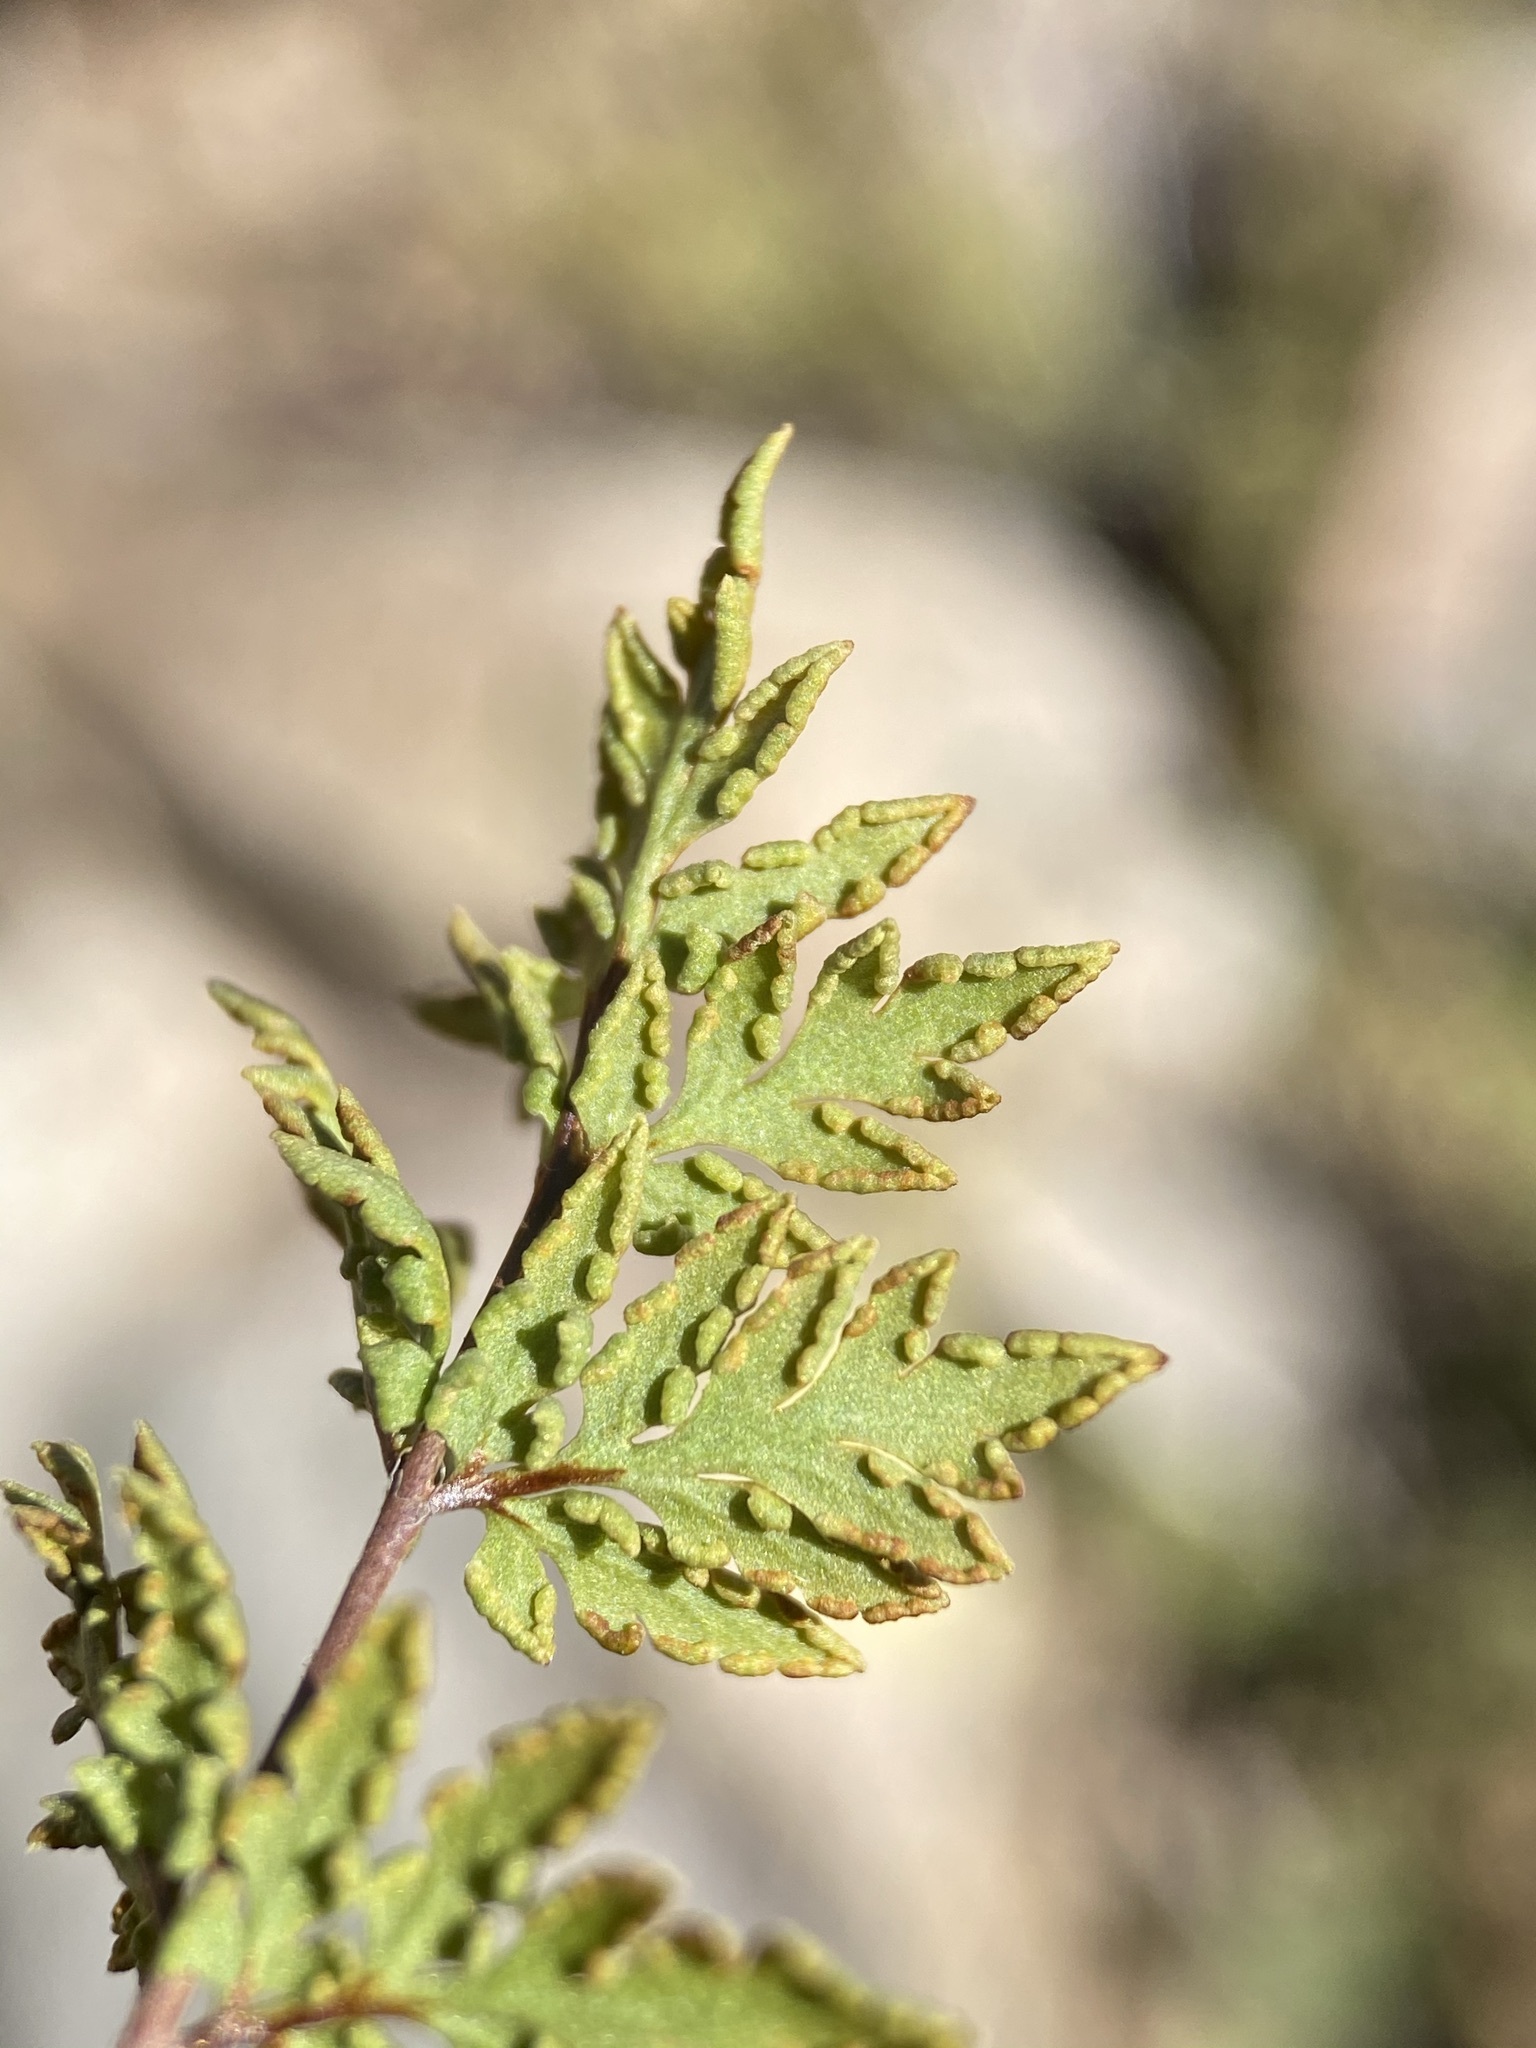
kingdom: Plantae
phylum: Tracheophyta
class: Polypodiopsida
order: Polypodiales
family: Pteridaceae
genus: Myriopteris
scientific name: Myriopteris wrightii
